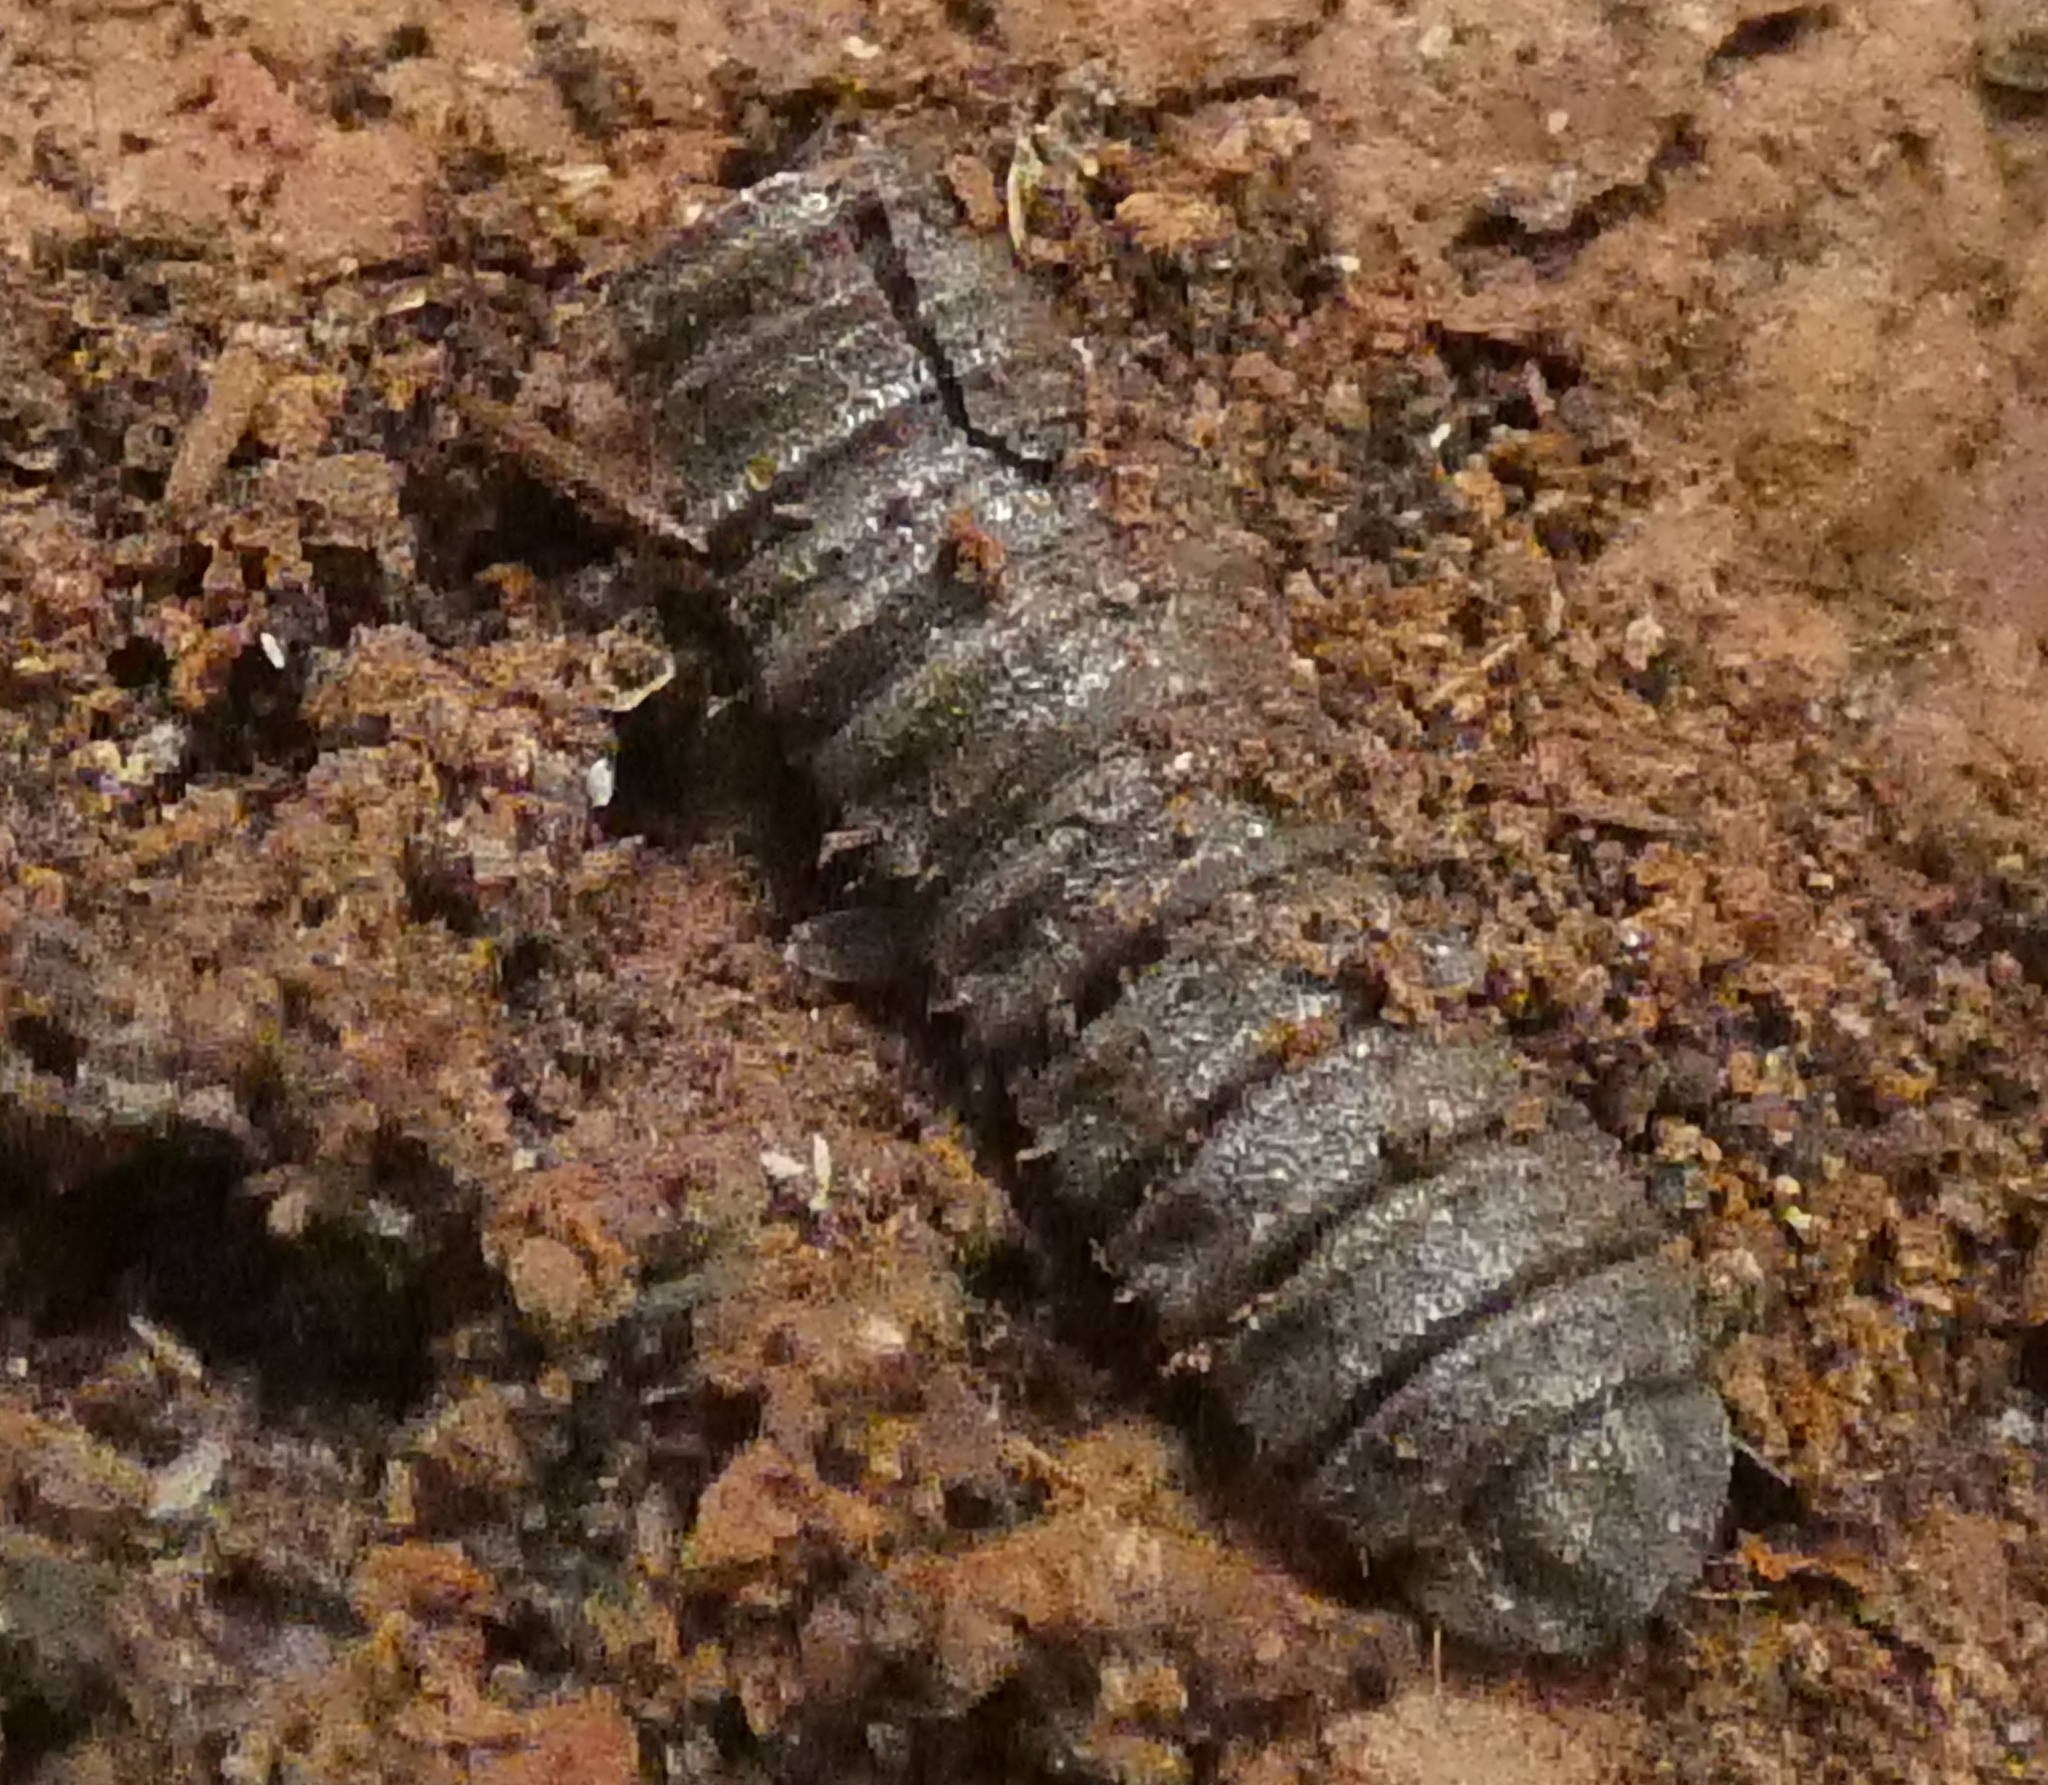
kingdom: Animalia
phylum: Arthropoda
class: Insecta
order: Diptera
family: Stratiomyidae
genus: Hermetia
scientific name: Hermetia illucens
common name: Black soldier fly
